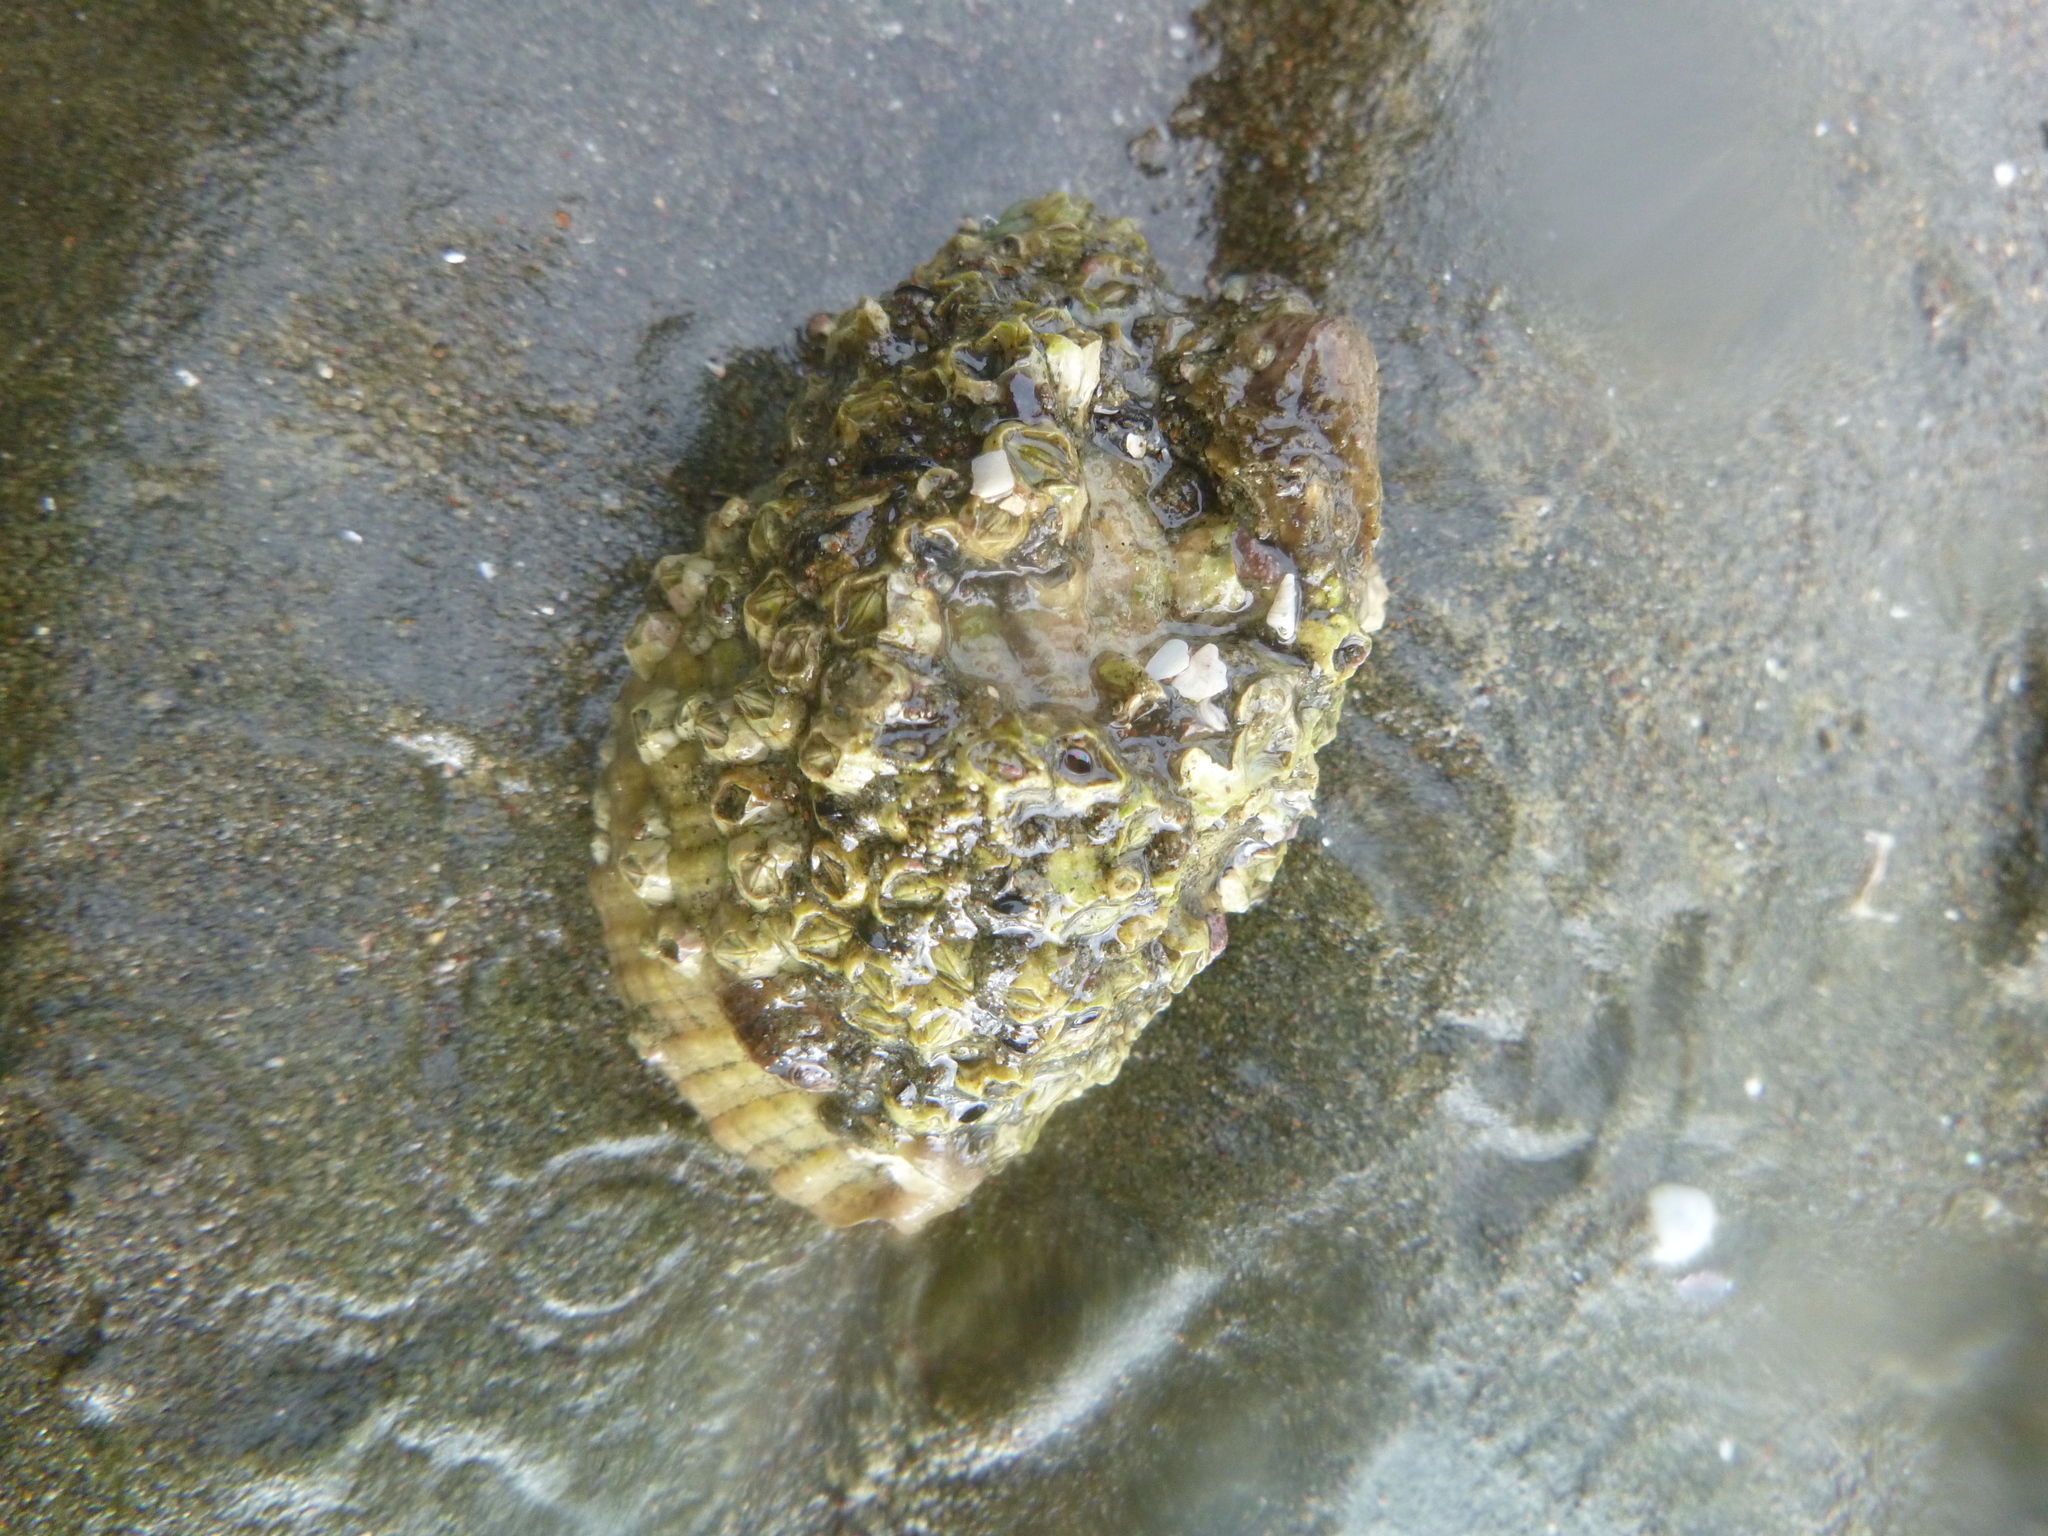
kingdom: Animalia
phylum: Arthropoda
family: Elminiidae
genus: Austrominius
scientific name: Austrominius modestus
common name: Australasian barnacle
